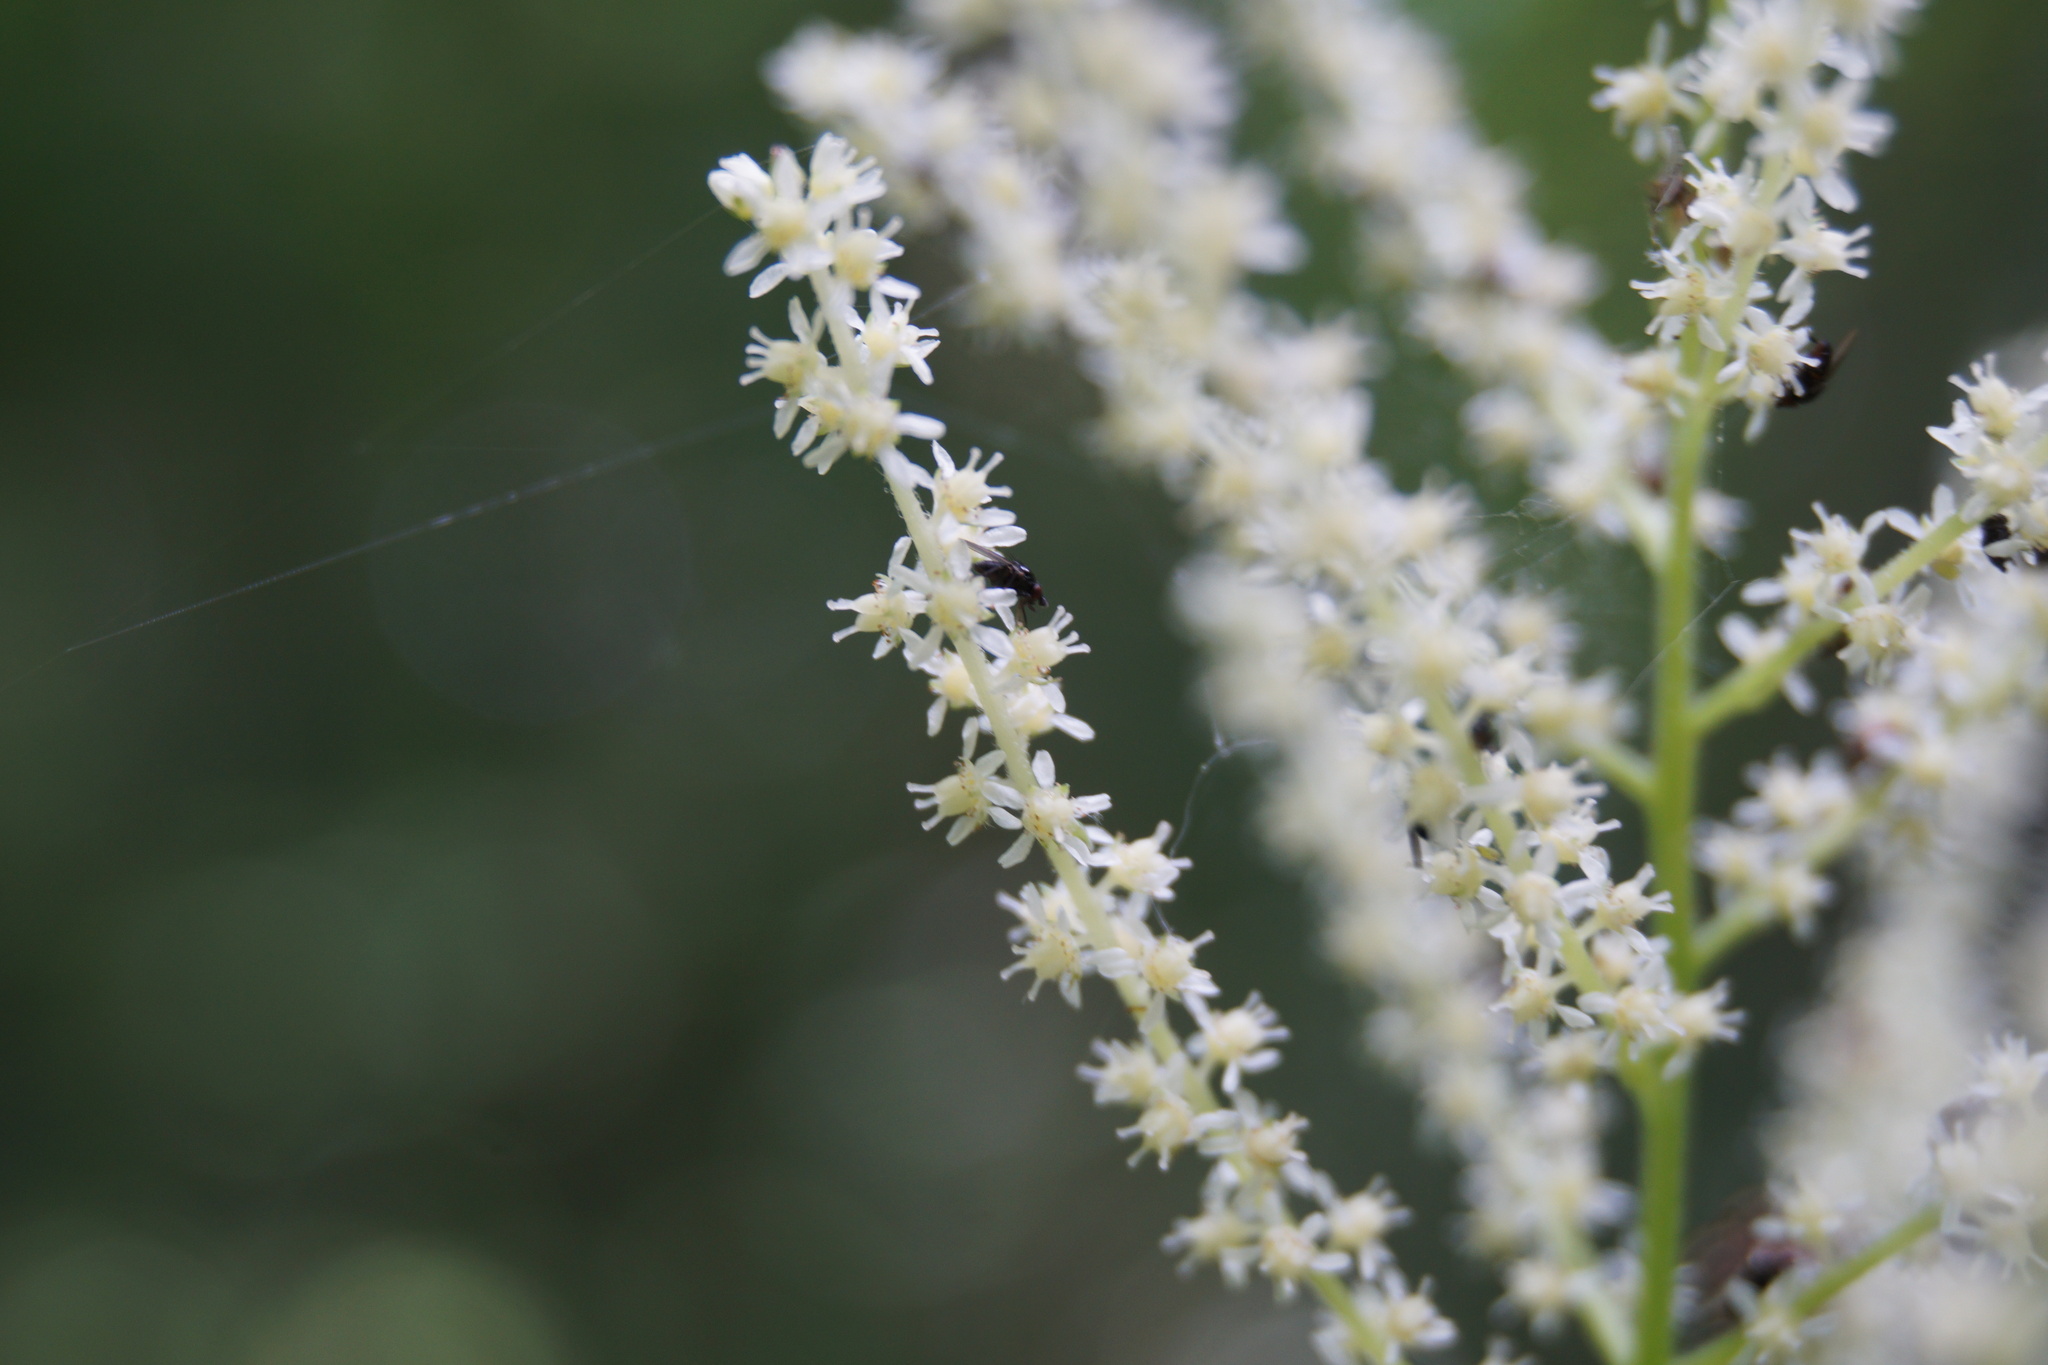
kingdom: Plantae
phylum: Tracheophyta
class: Magnoliopsida
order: Rosales
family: Rosaceae
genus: Aruncus
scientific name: Aruncus dioicus
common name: Buck's-beard
